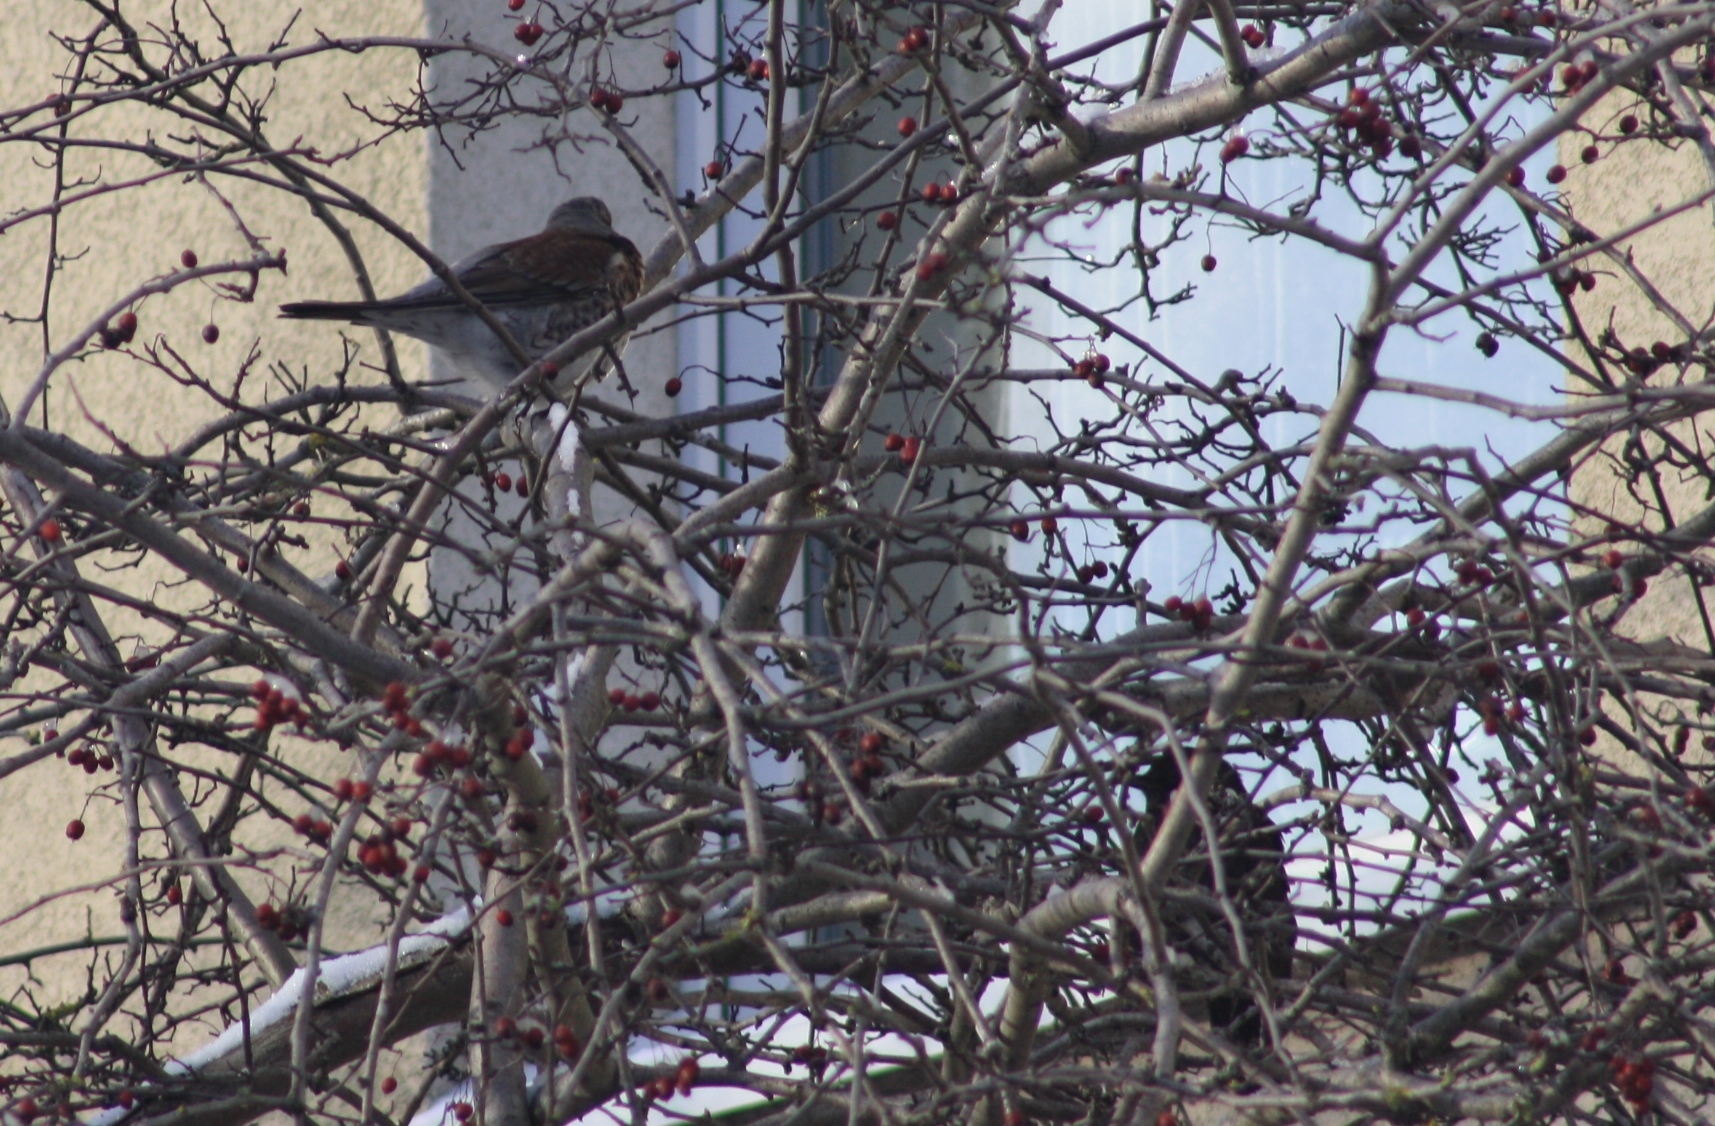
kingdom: Animalia
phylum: Chordata
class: Aves
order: Passeriformes
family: Turdidae
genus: Turdus
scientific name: Turdus pilaris
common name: Fieldfare
